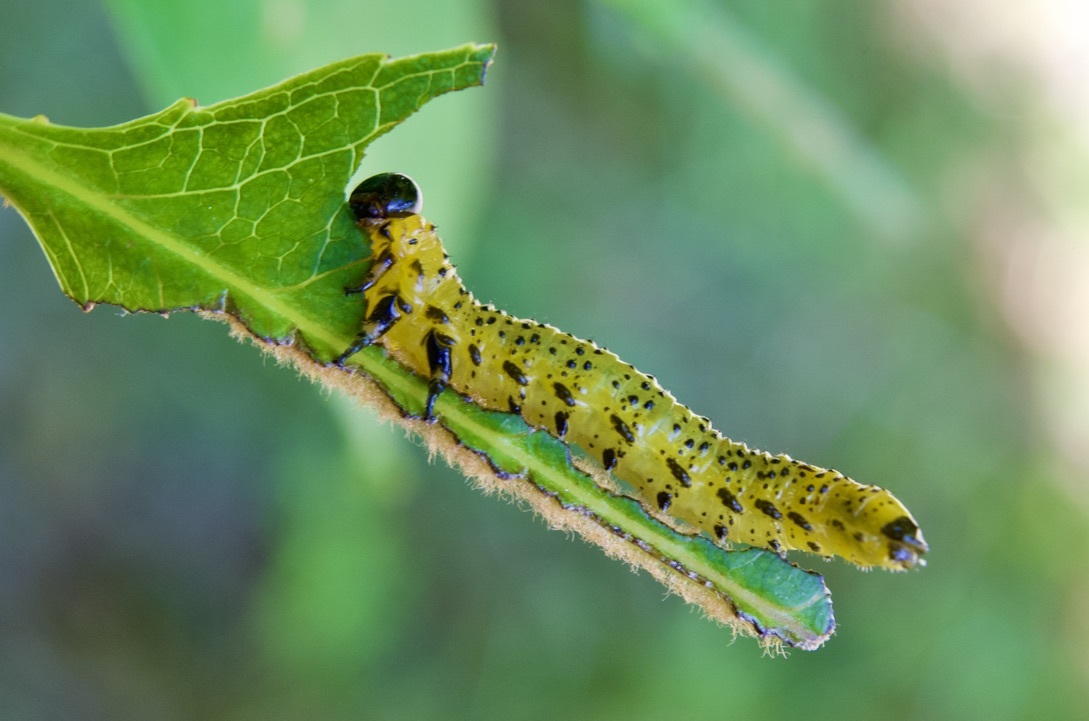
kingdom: Animalia
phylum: Arthropoda
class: Insecta
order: Hymenoptera
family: Argidae
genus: Arge
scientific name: Arge macleayi
